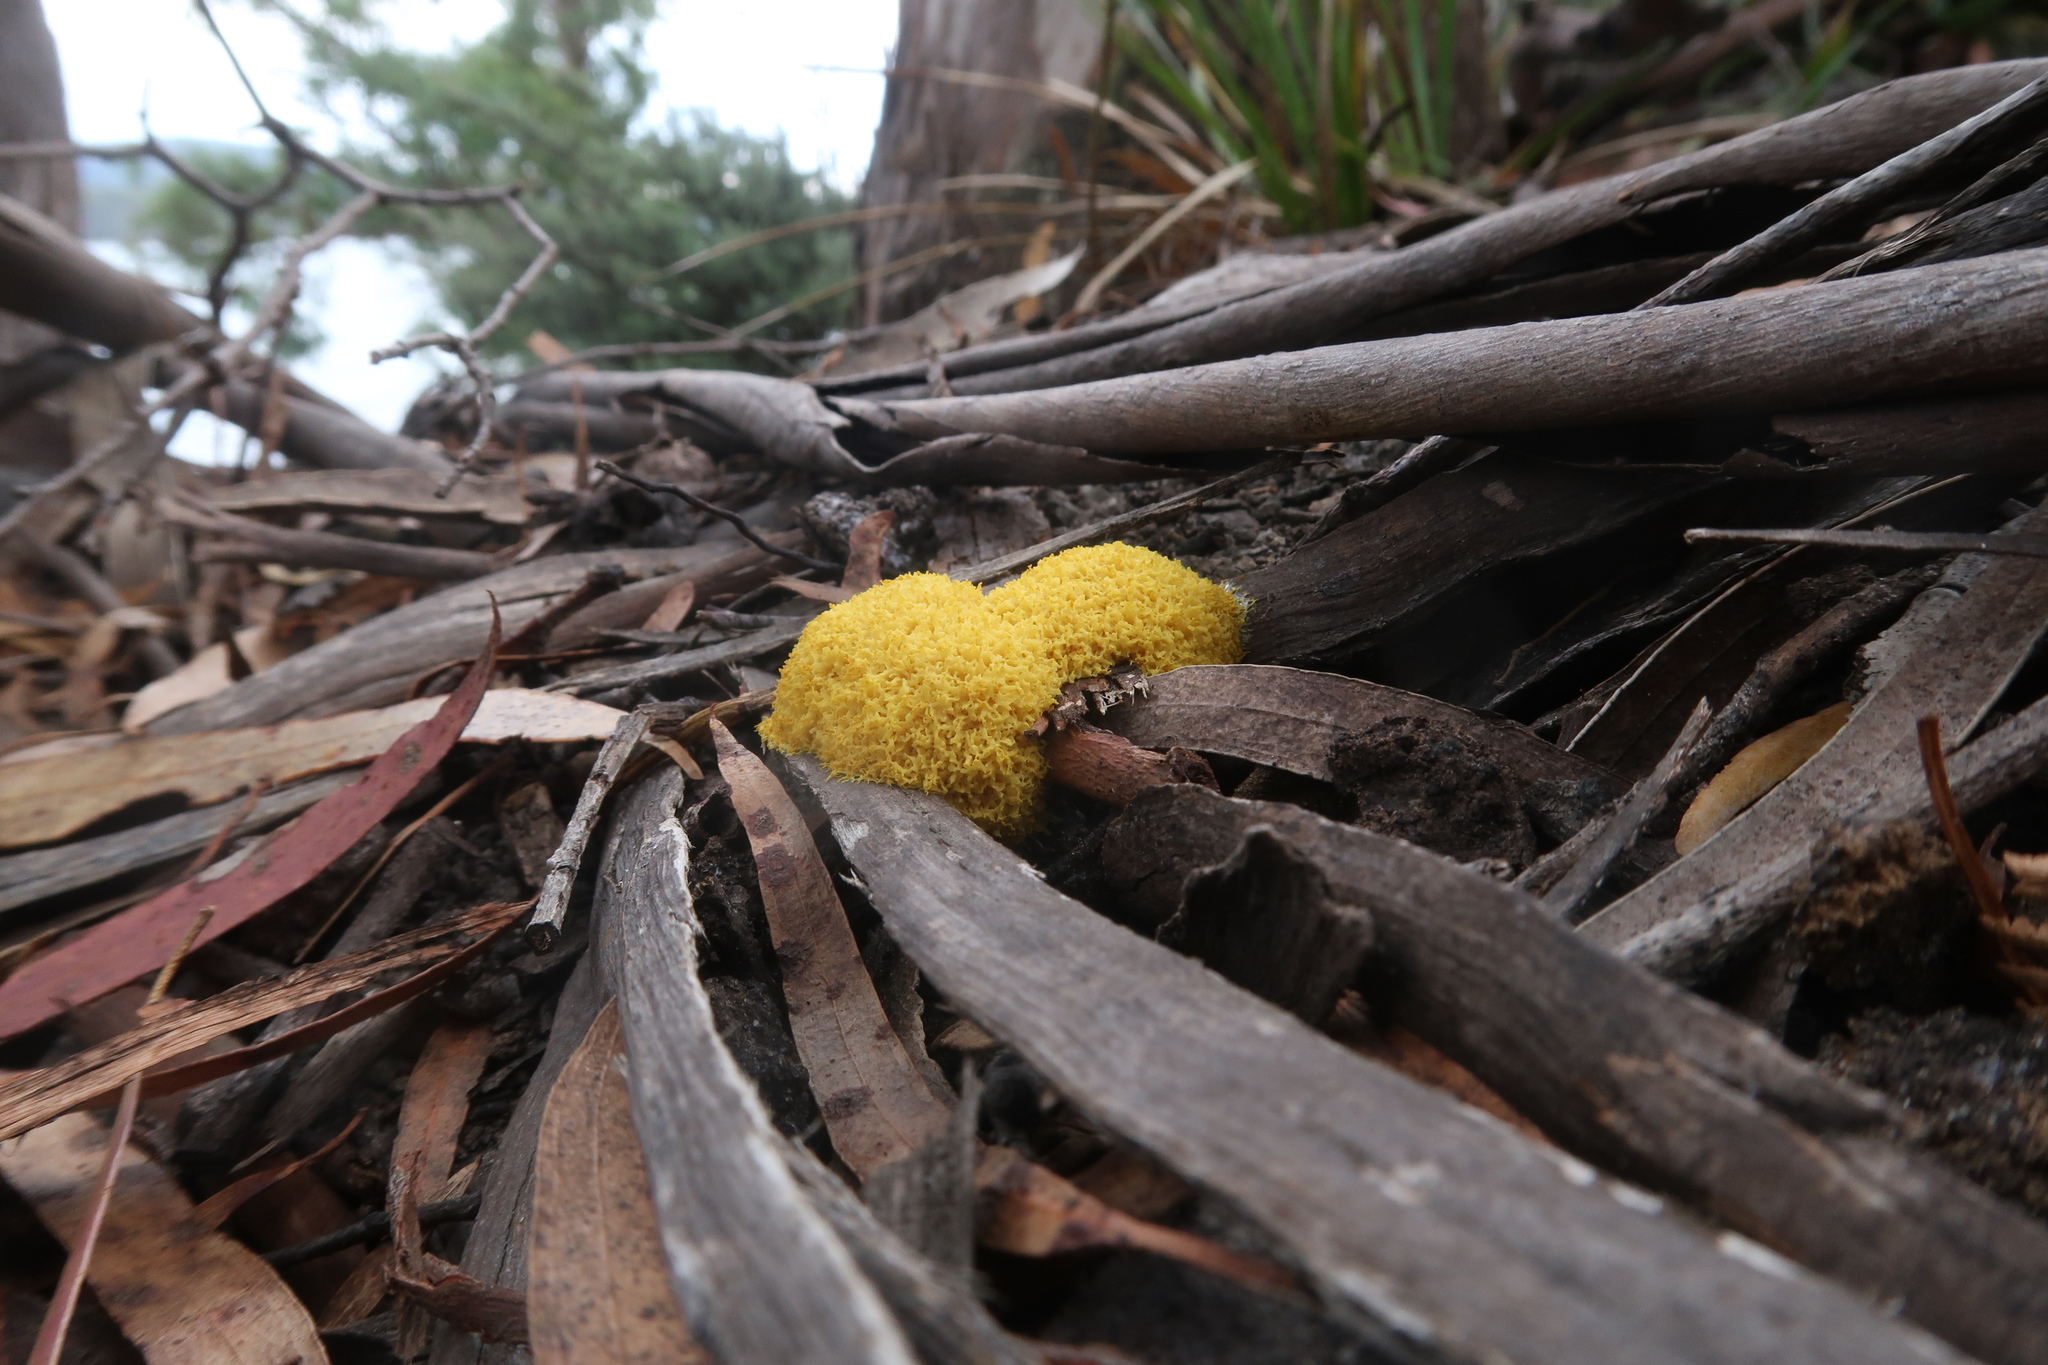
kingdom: Protozoa
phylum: Mycetozoa
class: Myxomycetes
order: Physarales
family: Physaraceae
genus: Fuligo
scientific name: Fuligo septica
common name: Dog vomit slime mold
